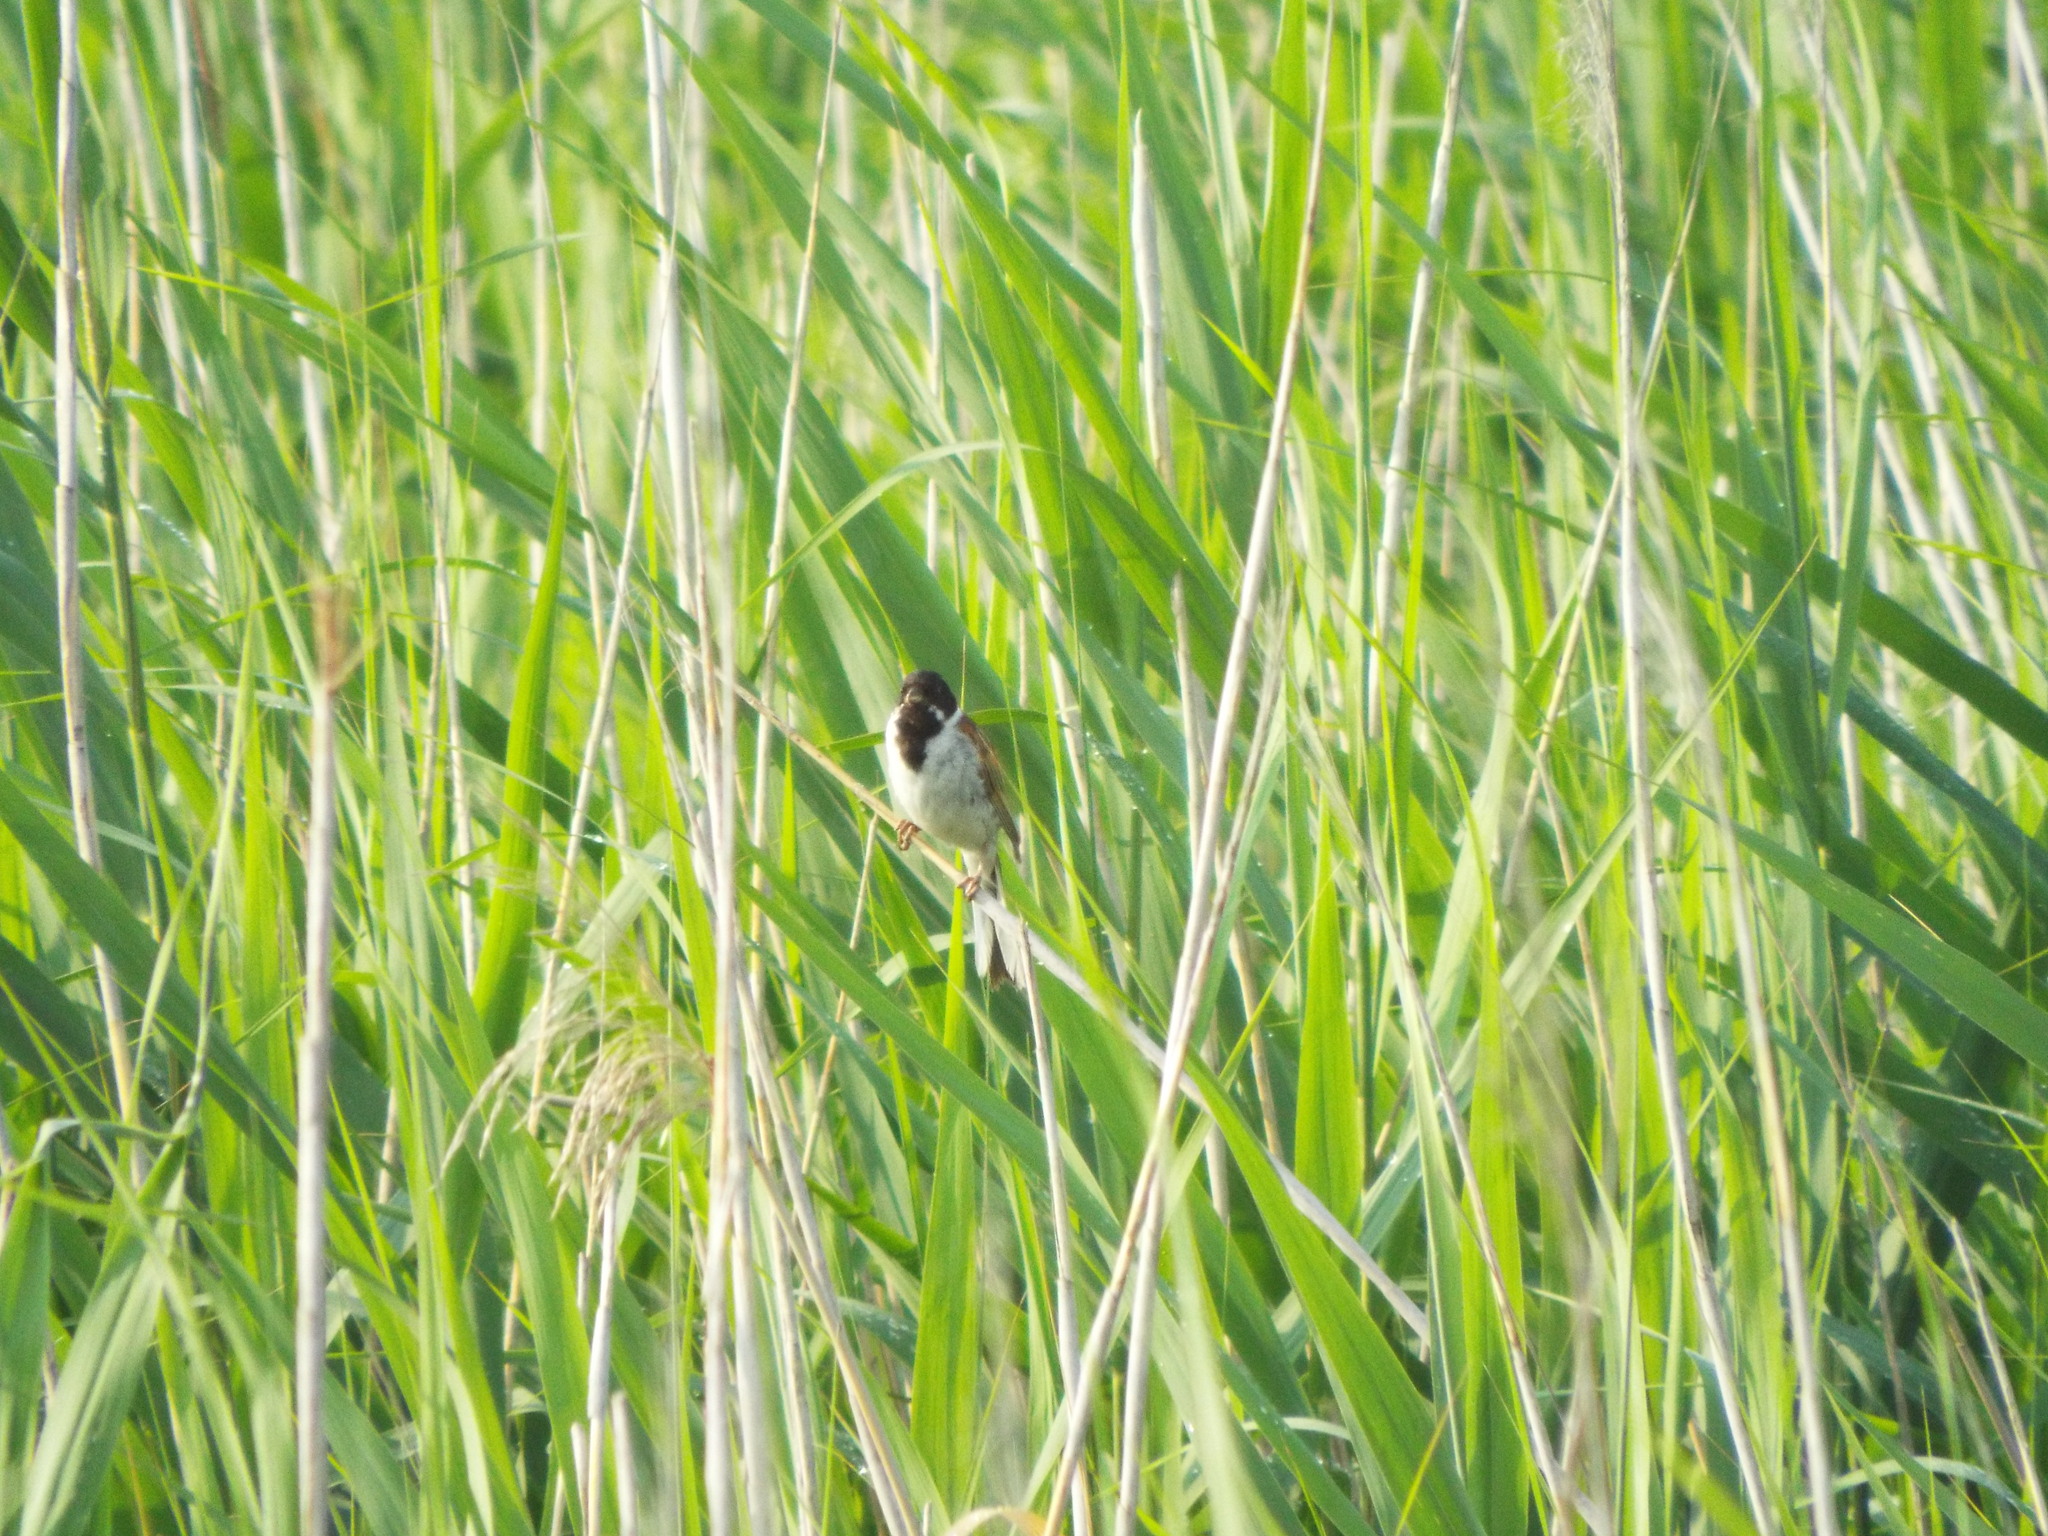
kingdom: Animalia
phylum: Chordata
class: Aves
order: Passeriformes
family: Emberizidae
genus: Emberiza
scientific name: Emberiza schoeniclus
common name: Reed bunting
